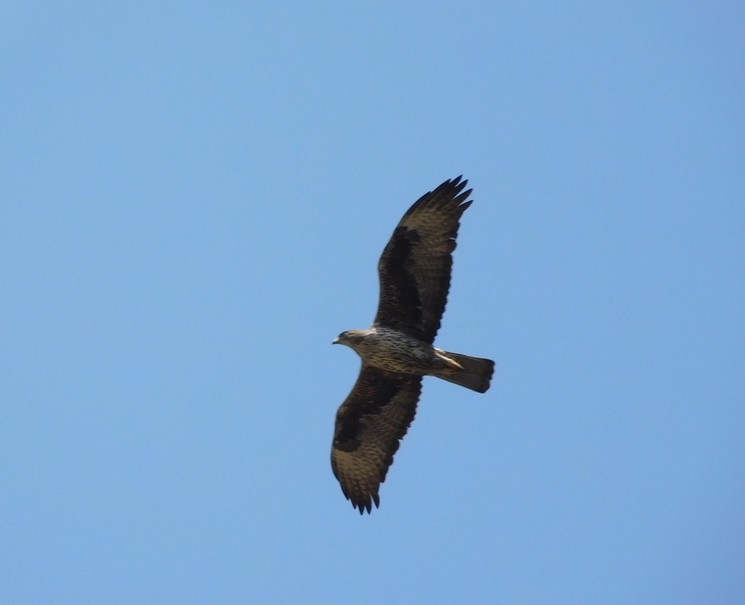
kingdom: Animalia
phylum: Chordata
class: Aves
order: Accipitriformes
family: Accipitridae
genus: Aquila
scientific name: Aquila fasciata
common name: Bonelli's eagle
